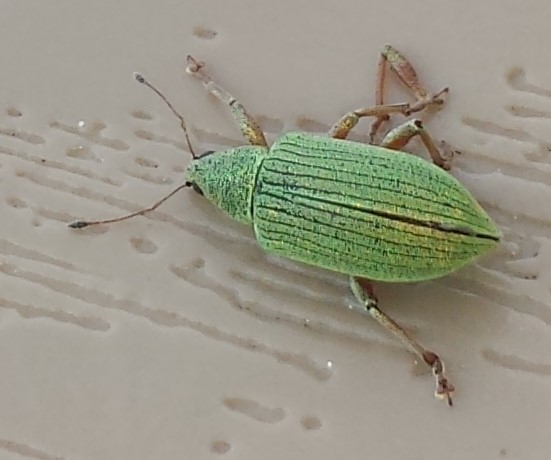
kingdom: Animalia
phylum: Arthropoda
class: Insecta
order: Coleoptera
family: Curculionidae
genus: Polydrusus
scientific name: Polydrusus formosus
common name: Weevil
